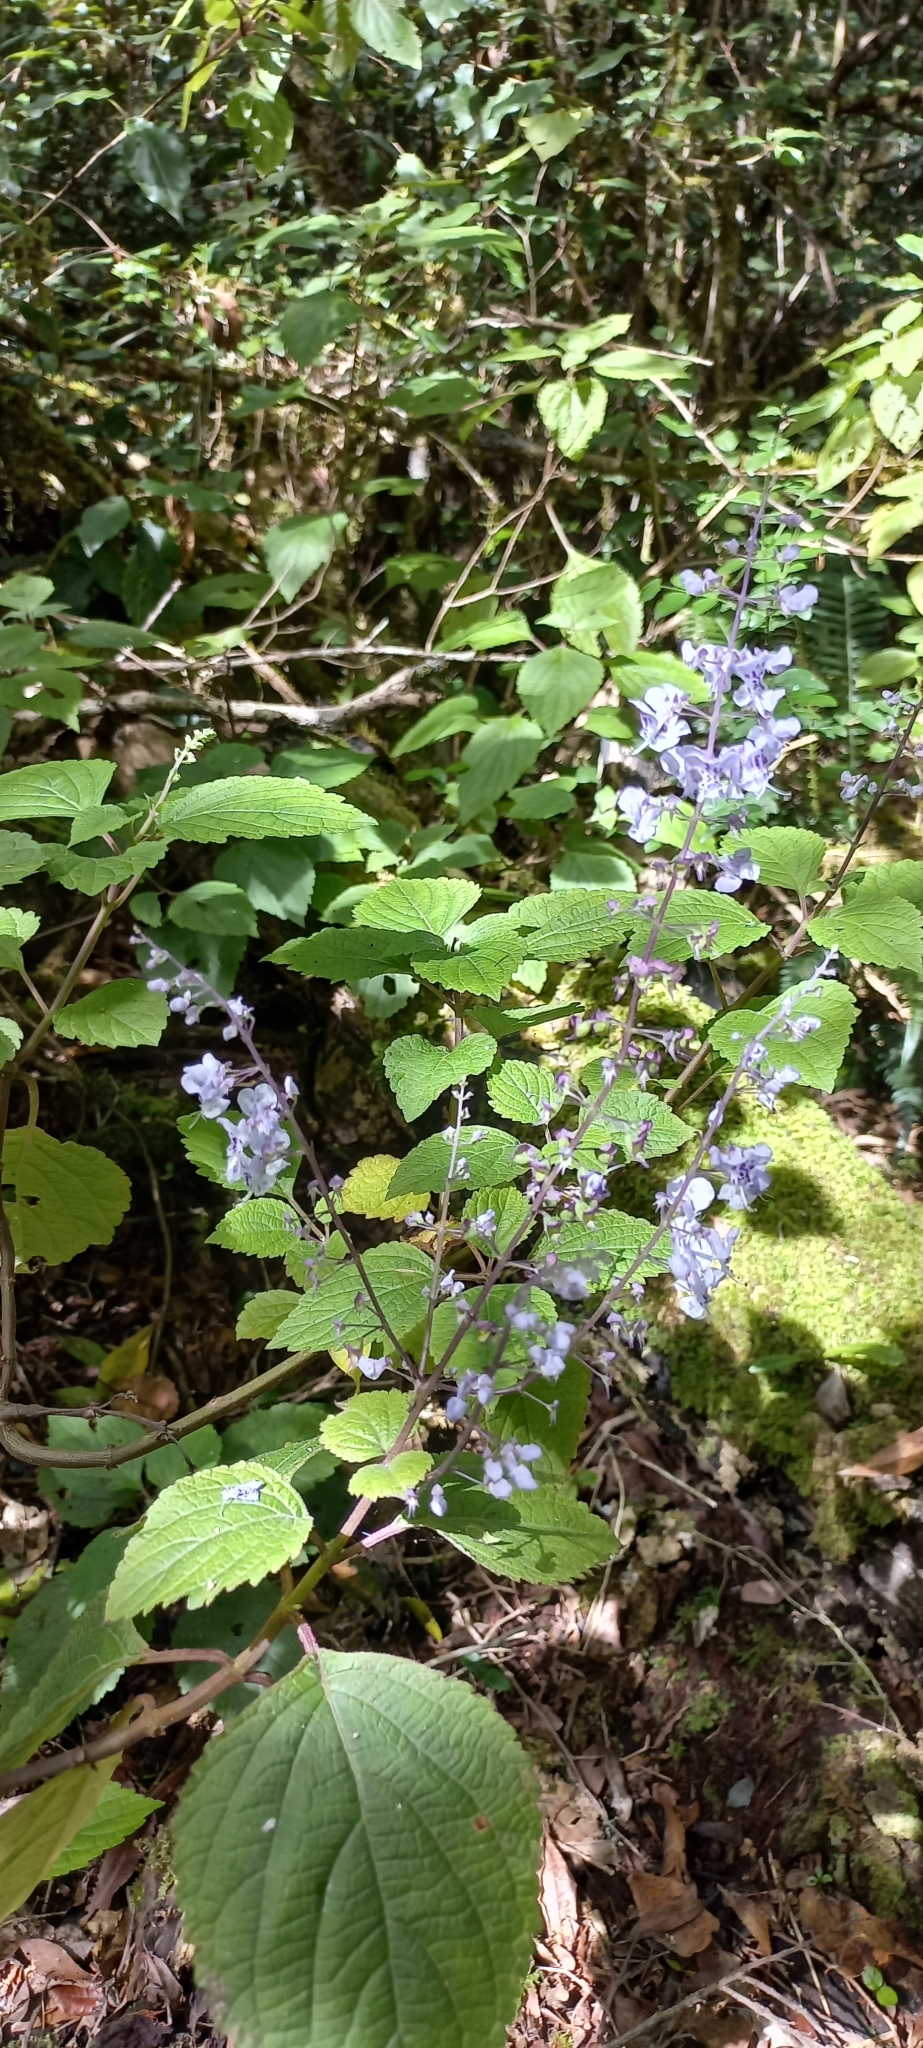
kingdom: Plantae
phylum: Tracheophyta
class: Magnoliopsida
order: Lamiales
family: Lamiaceae
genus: Plectranthus
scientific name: Plectranthus fruticosus
